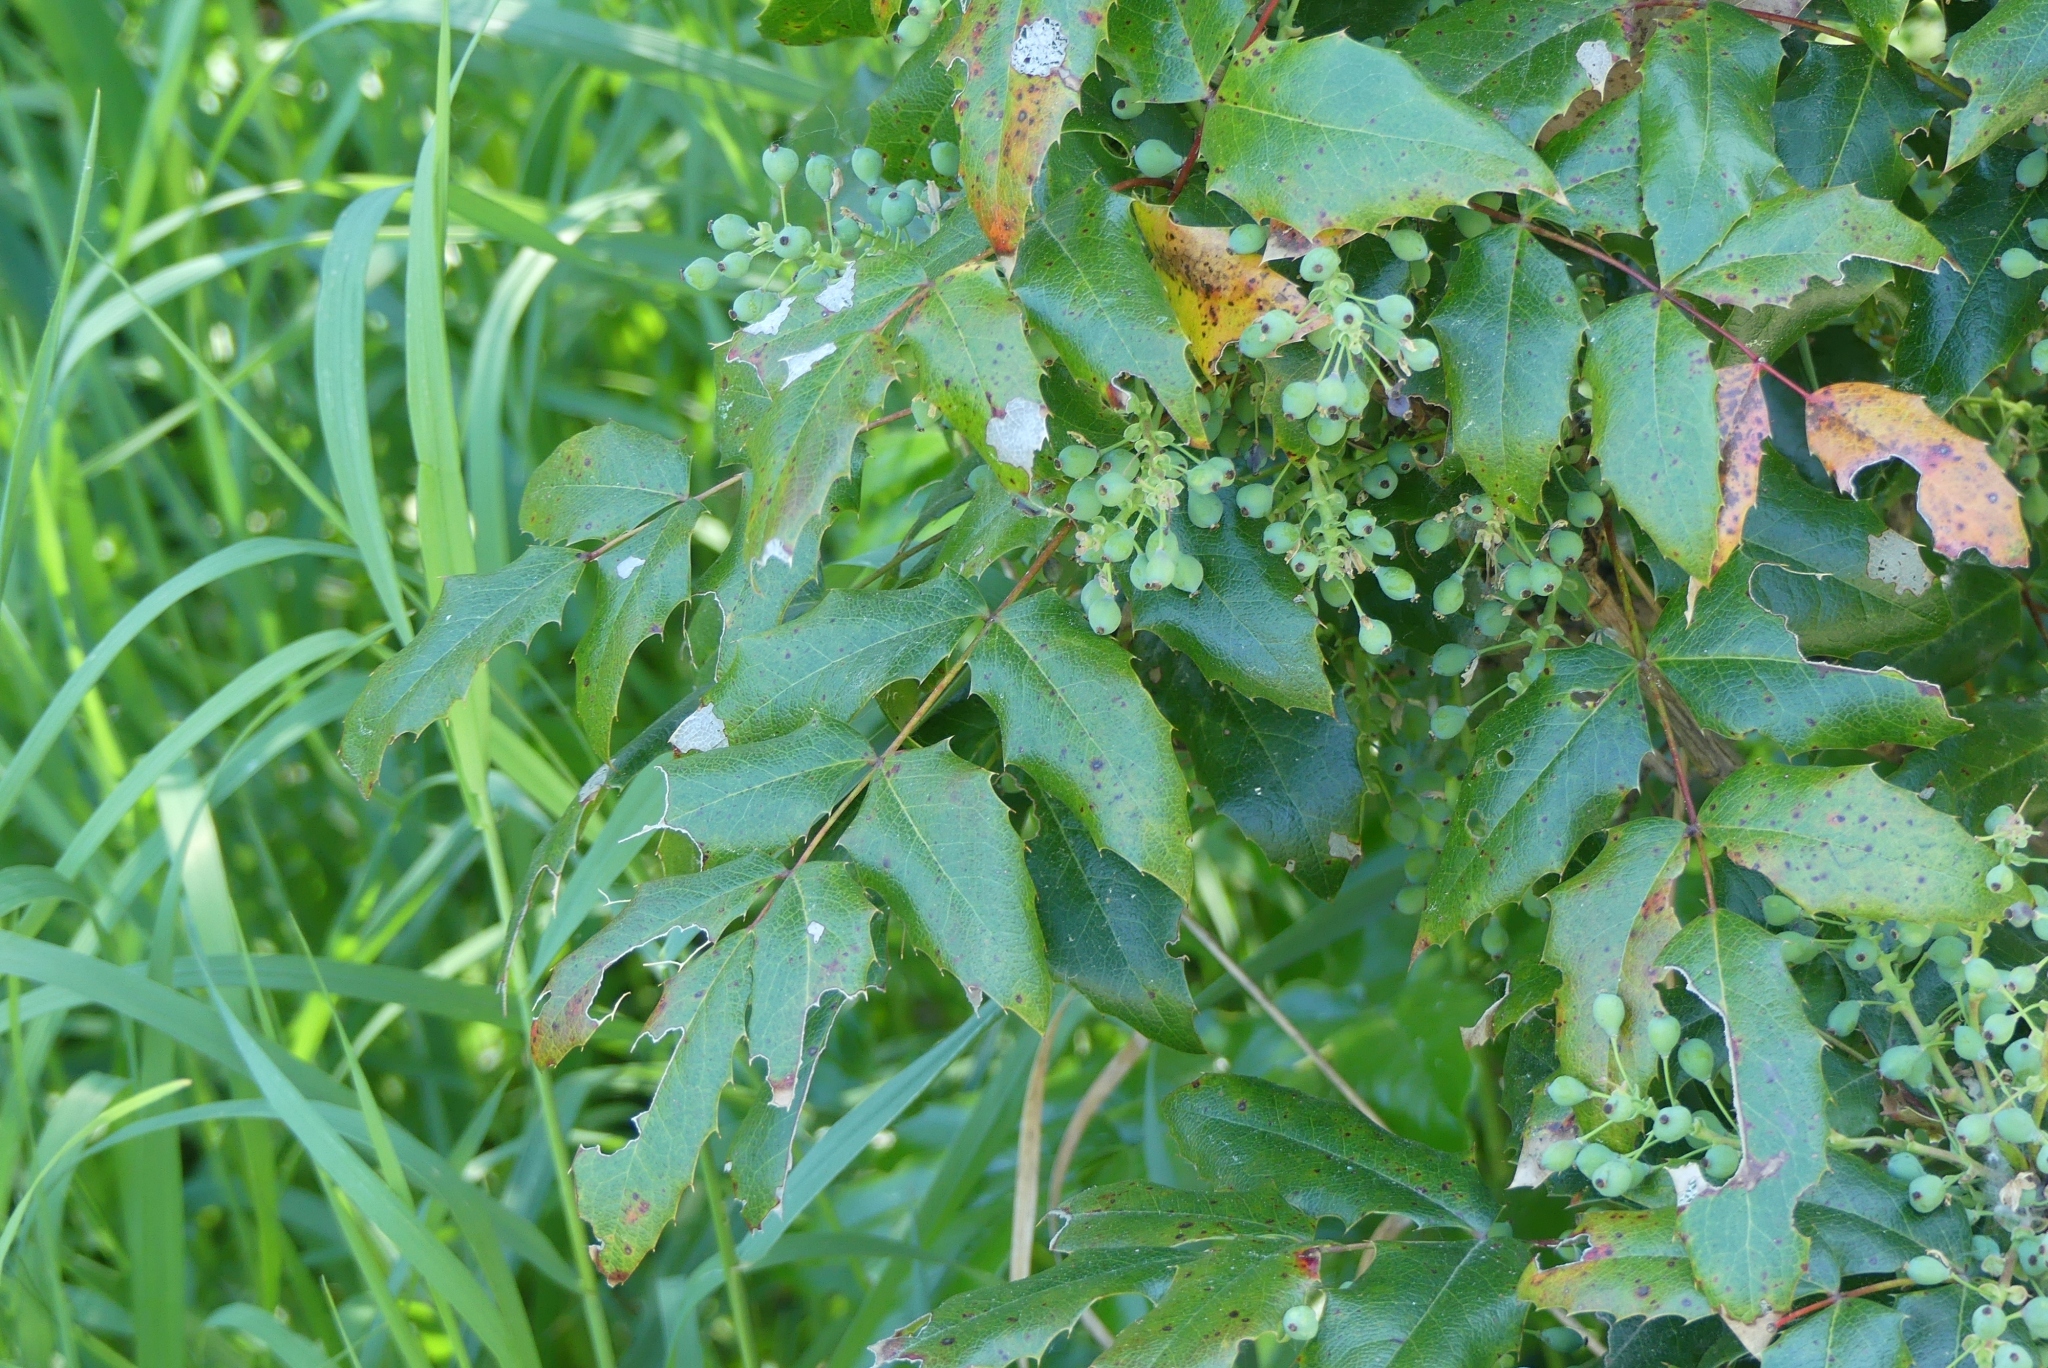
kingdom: Plantae
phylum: Tracheophyta
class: Magnoliopsida
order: Ranunculales
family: Berberidaceae
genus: Mahonia
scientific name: Mahonia aquifolium
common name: Oregon-grape
